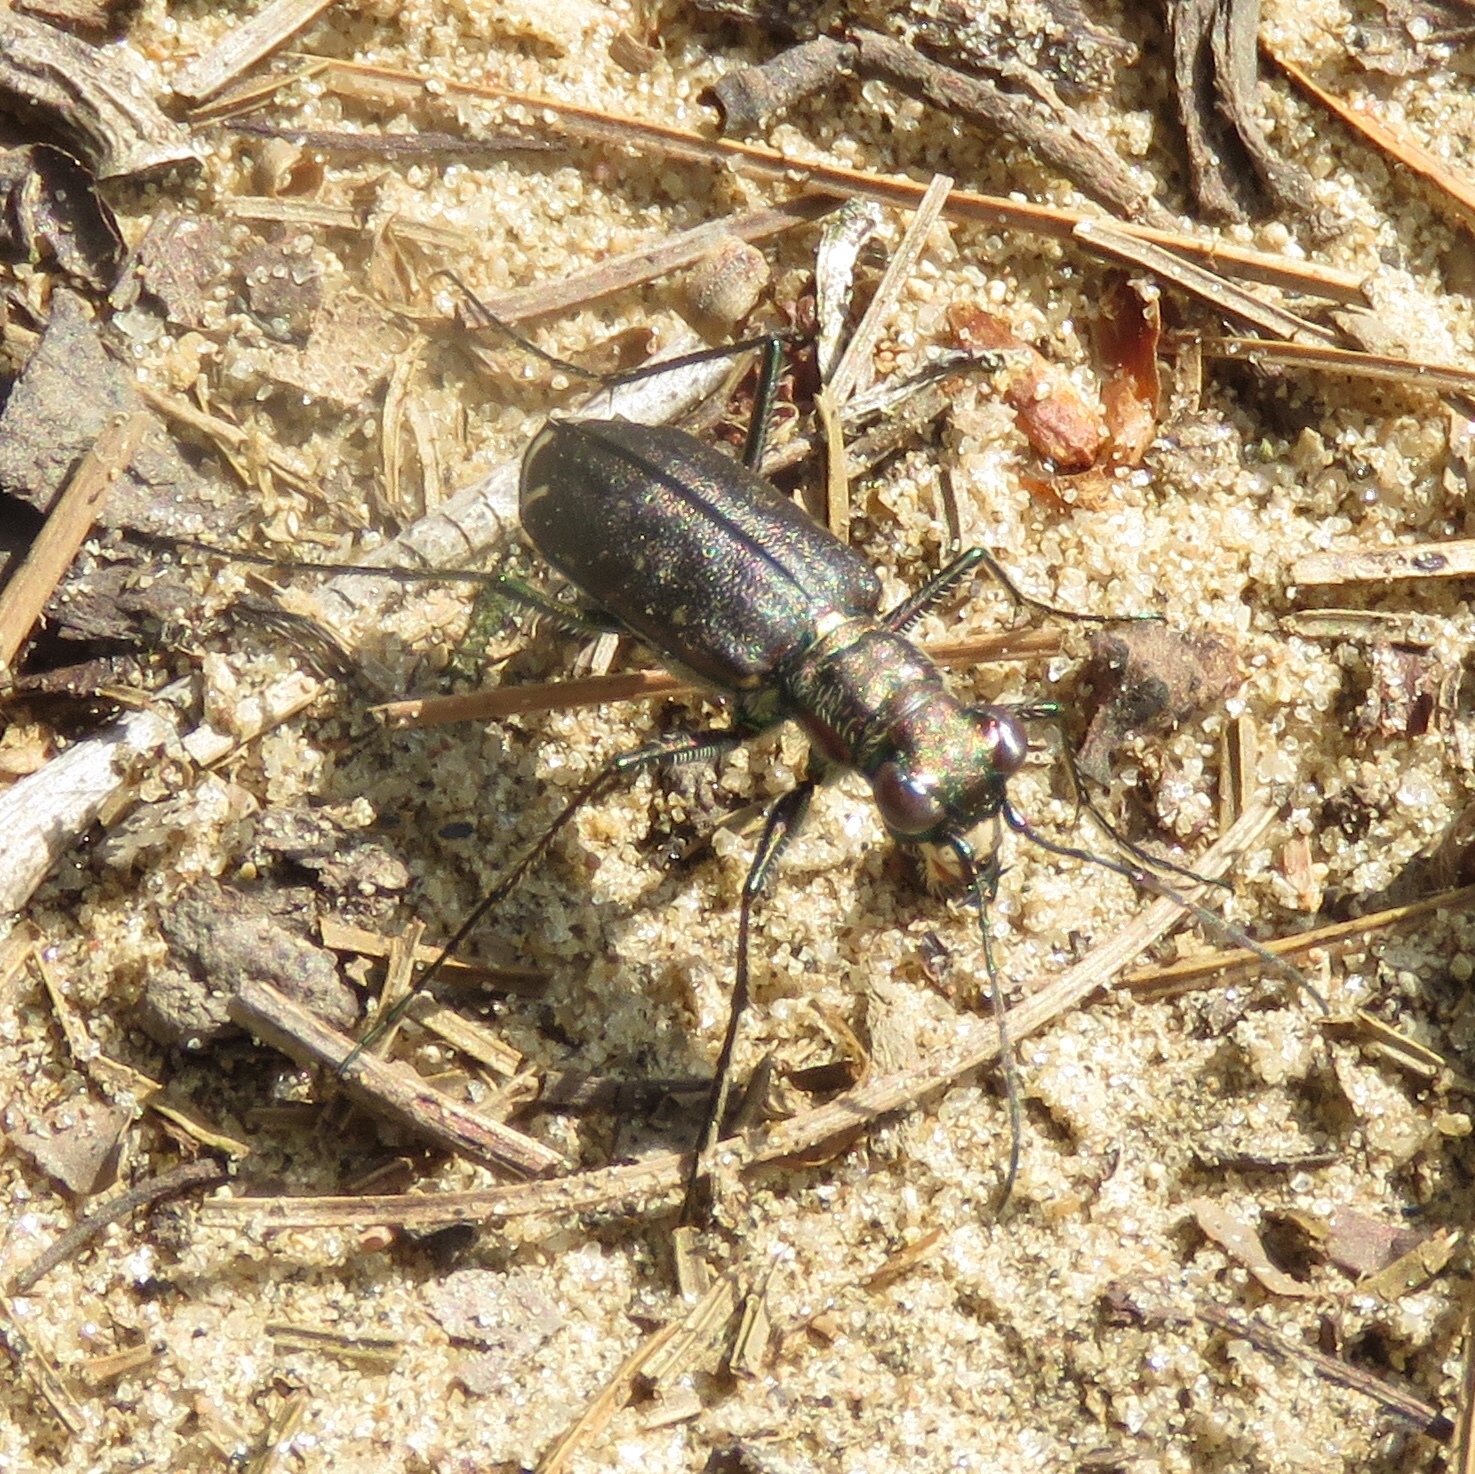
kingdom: Animalia
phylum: Arthropoda
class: Insecta
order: Coleoptera
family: Carabidae
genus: Cicindela
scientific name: Cicindela punctulata
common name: Punctured tiger beetle
